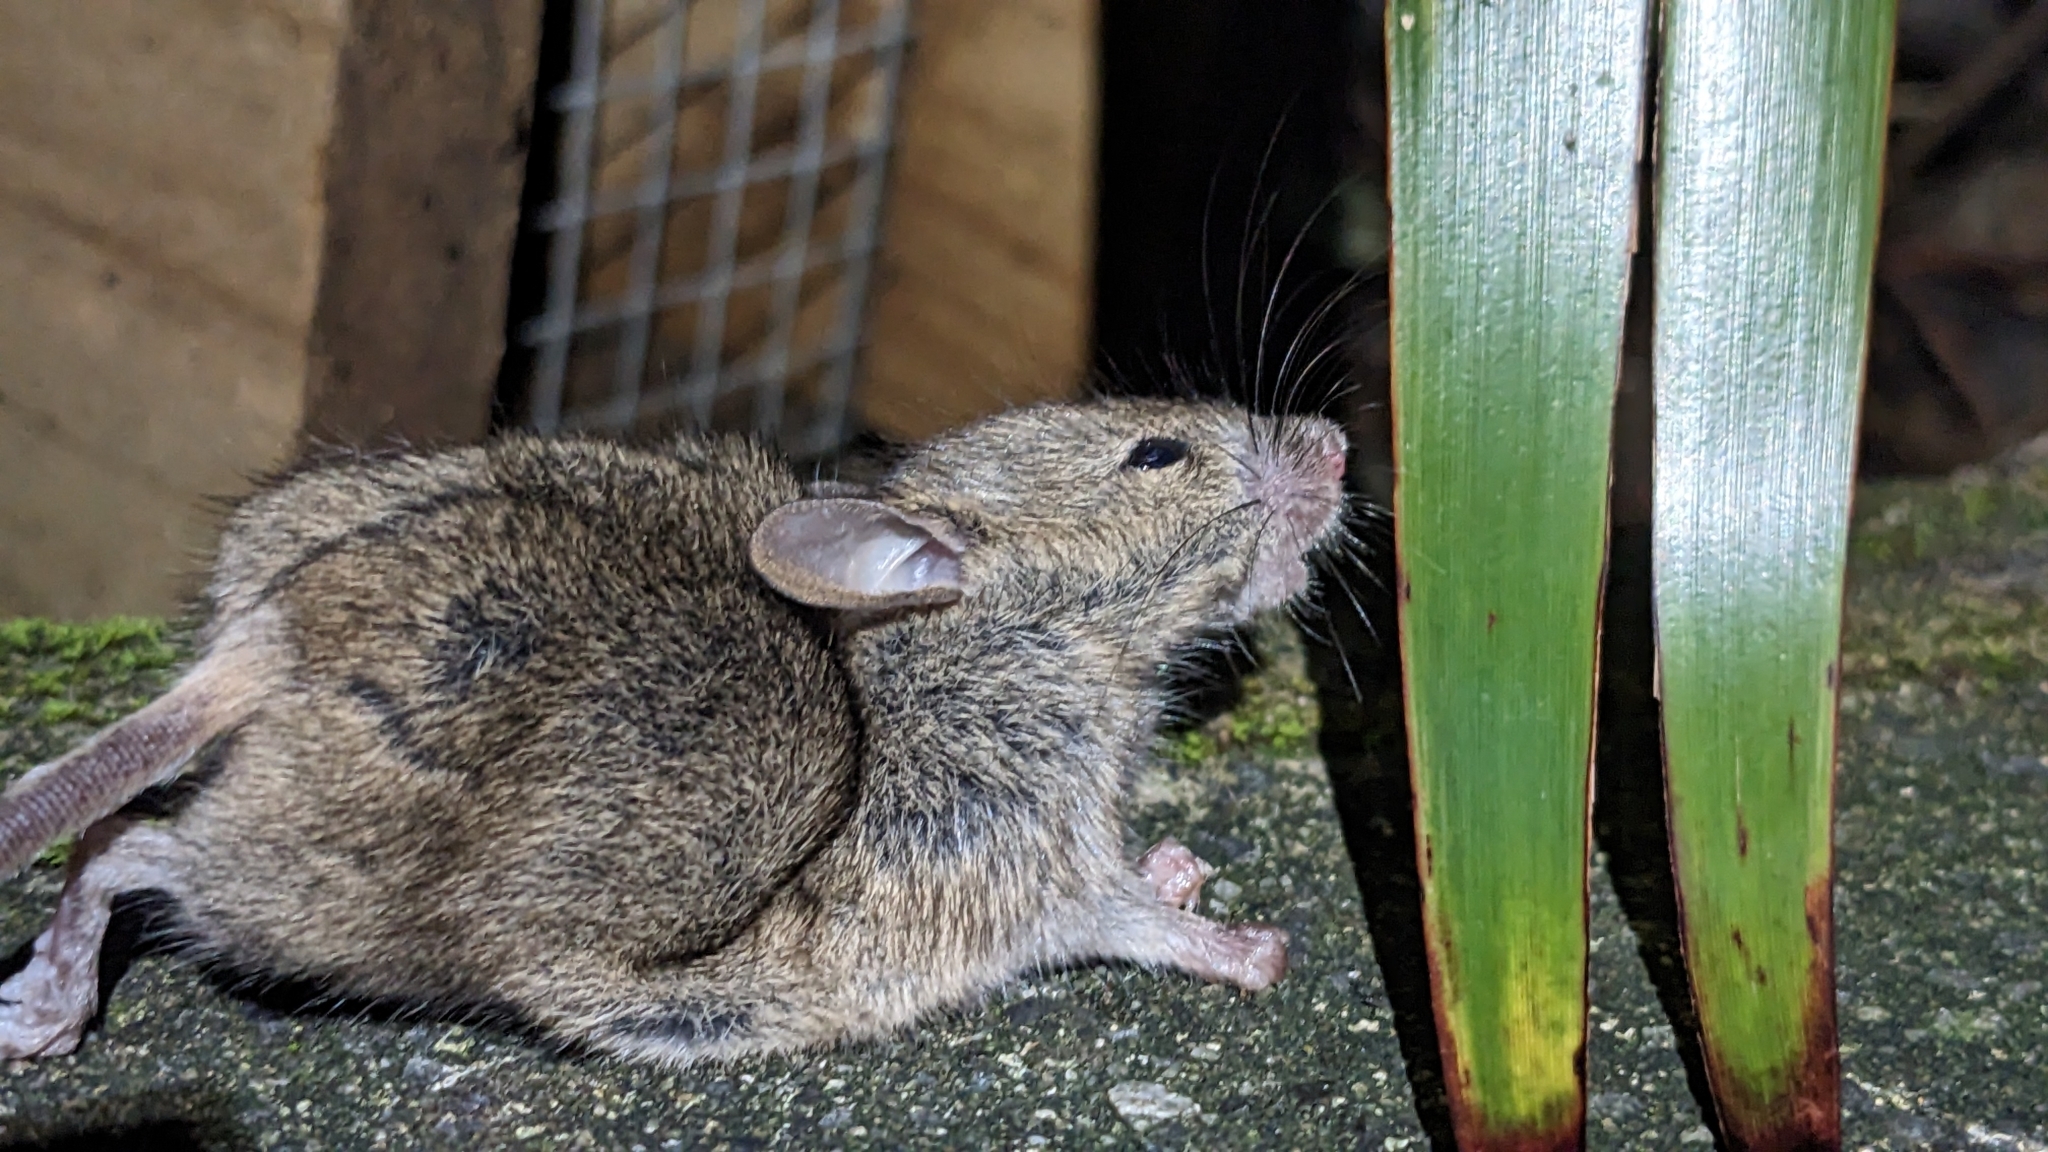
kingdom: Animalia
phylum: Chordata
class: Mammalia
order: Rodentia
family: Muridae
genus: Mus
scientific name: Mus musculus
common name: House mouse
